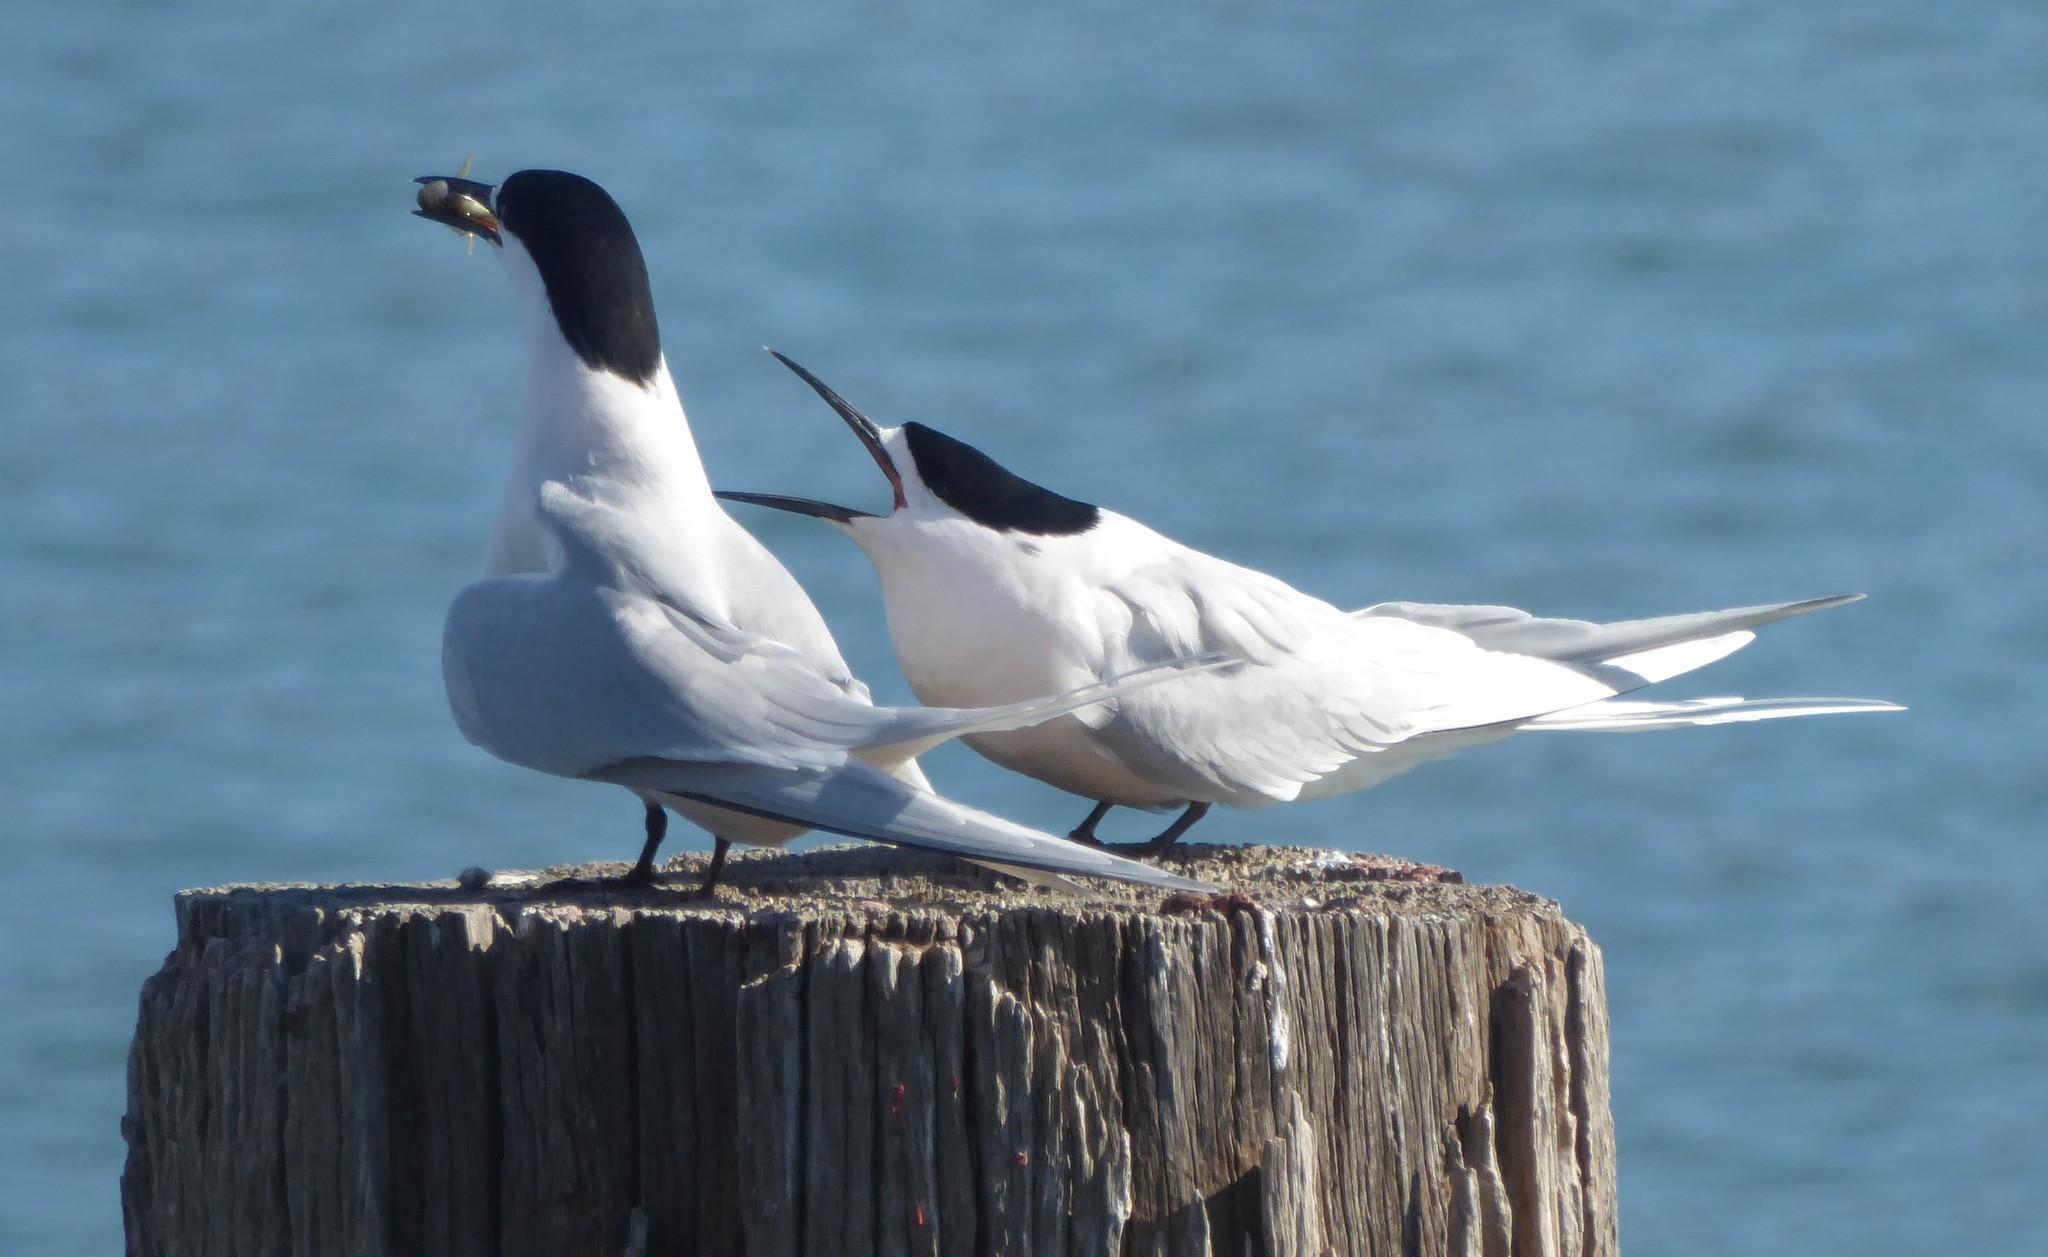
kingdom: Animalia
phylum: Chordata
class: Aves
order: Charadriiformes
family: Laridae
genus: Sterna
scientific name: Sterna striata
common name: White-fronted tern
